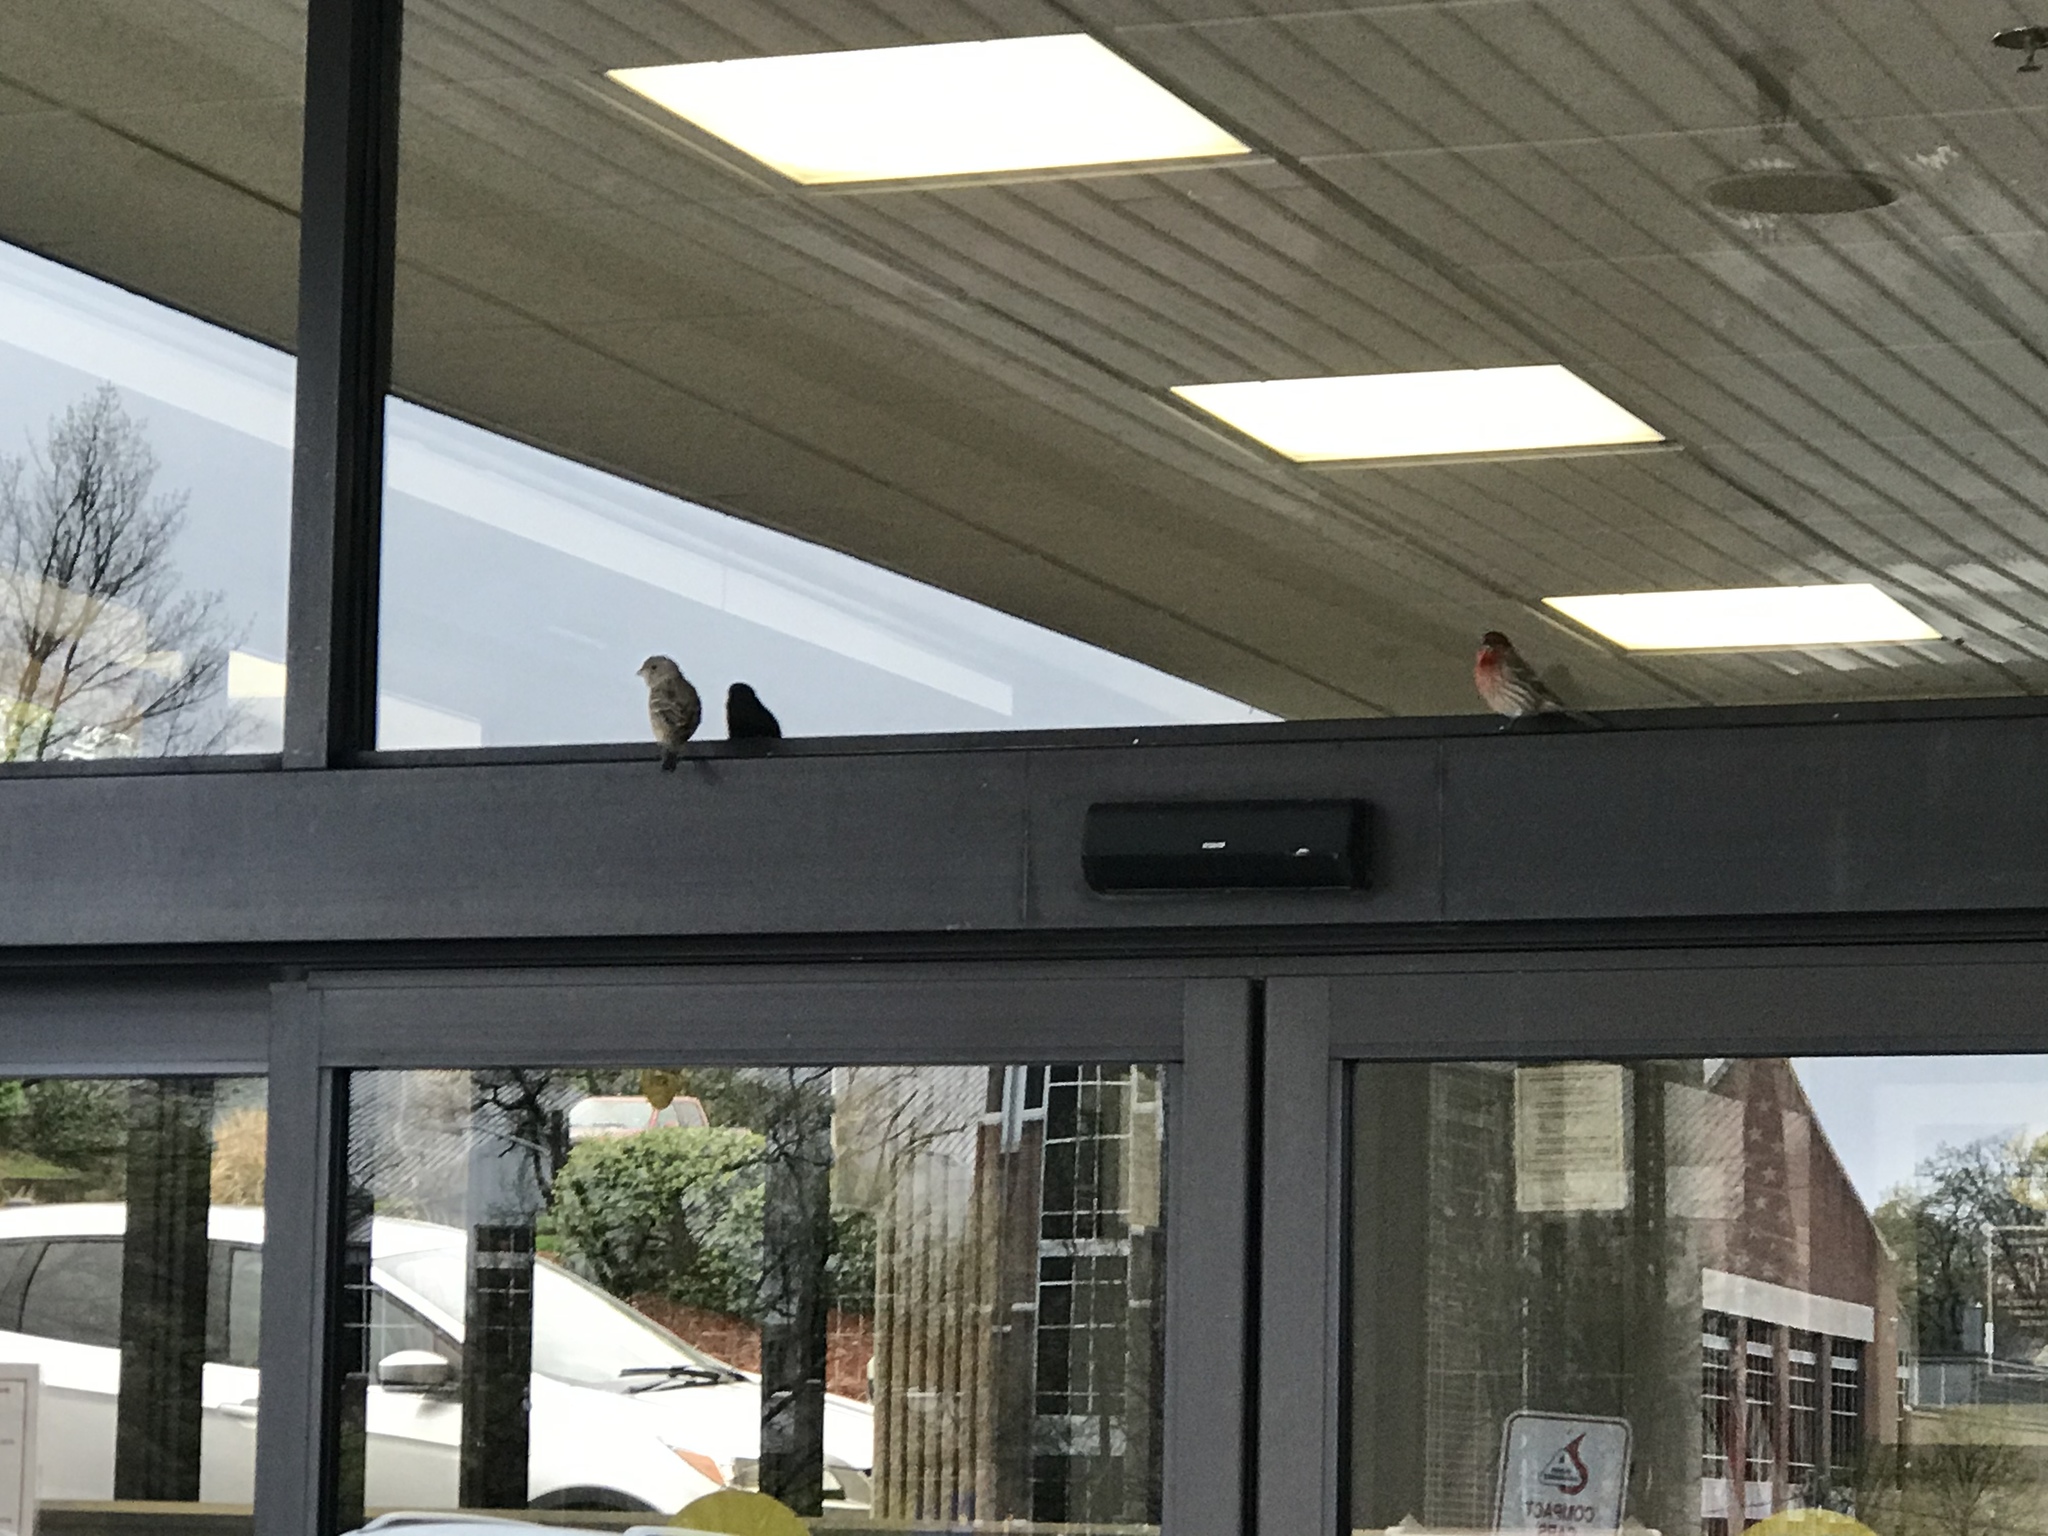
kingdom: Animalia
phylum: Chordata
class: Aves
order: Passeriformes
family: Fringillidae
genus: Haemorhous
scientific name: Haemorhous mexicanus
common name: House finch
